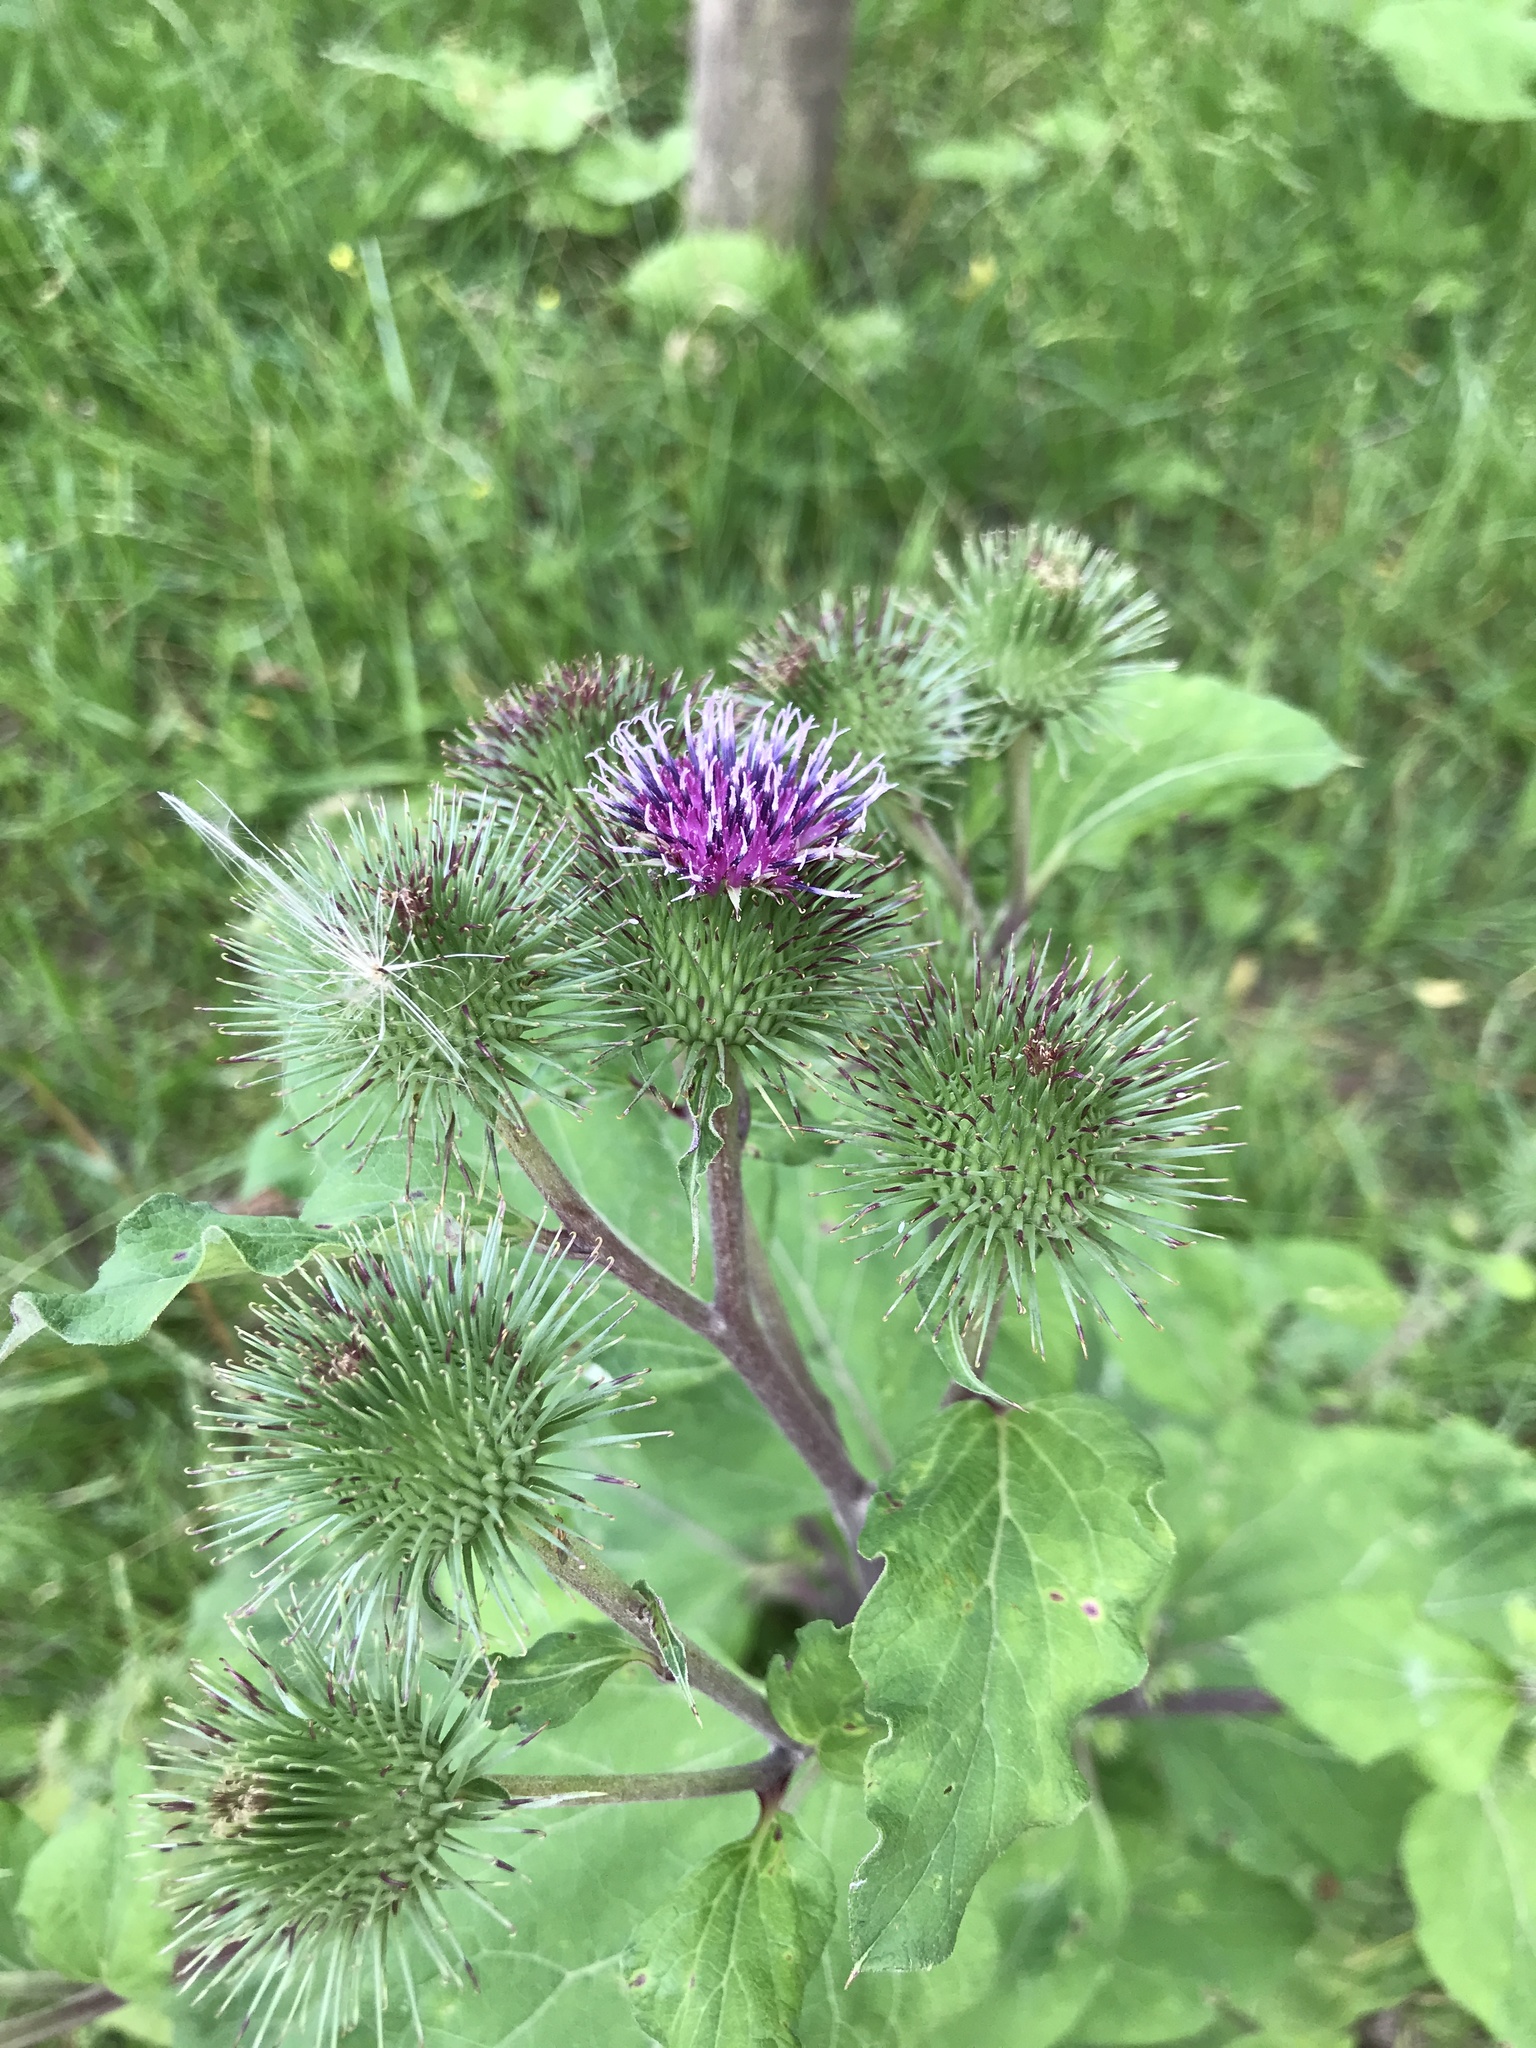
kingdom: Plantae
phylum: Tracheophyta
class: Magnoliopsida
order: Asterales
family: Asteraceae
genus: Arctium
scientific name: Arctium lappa
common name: Greater burdock
